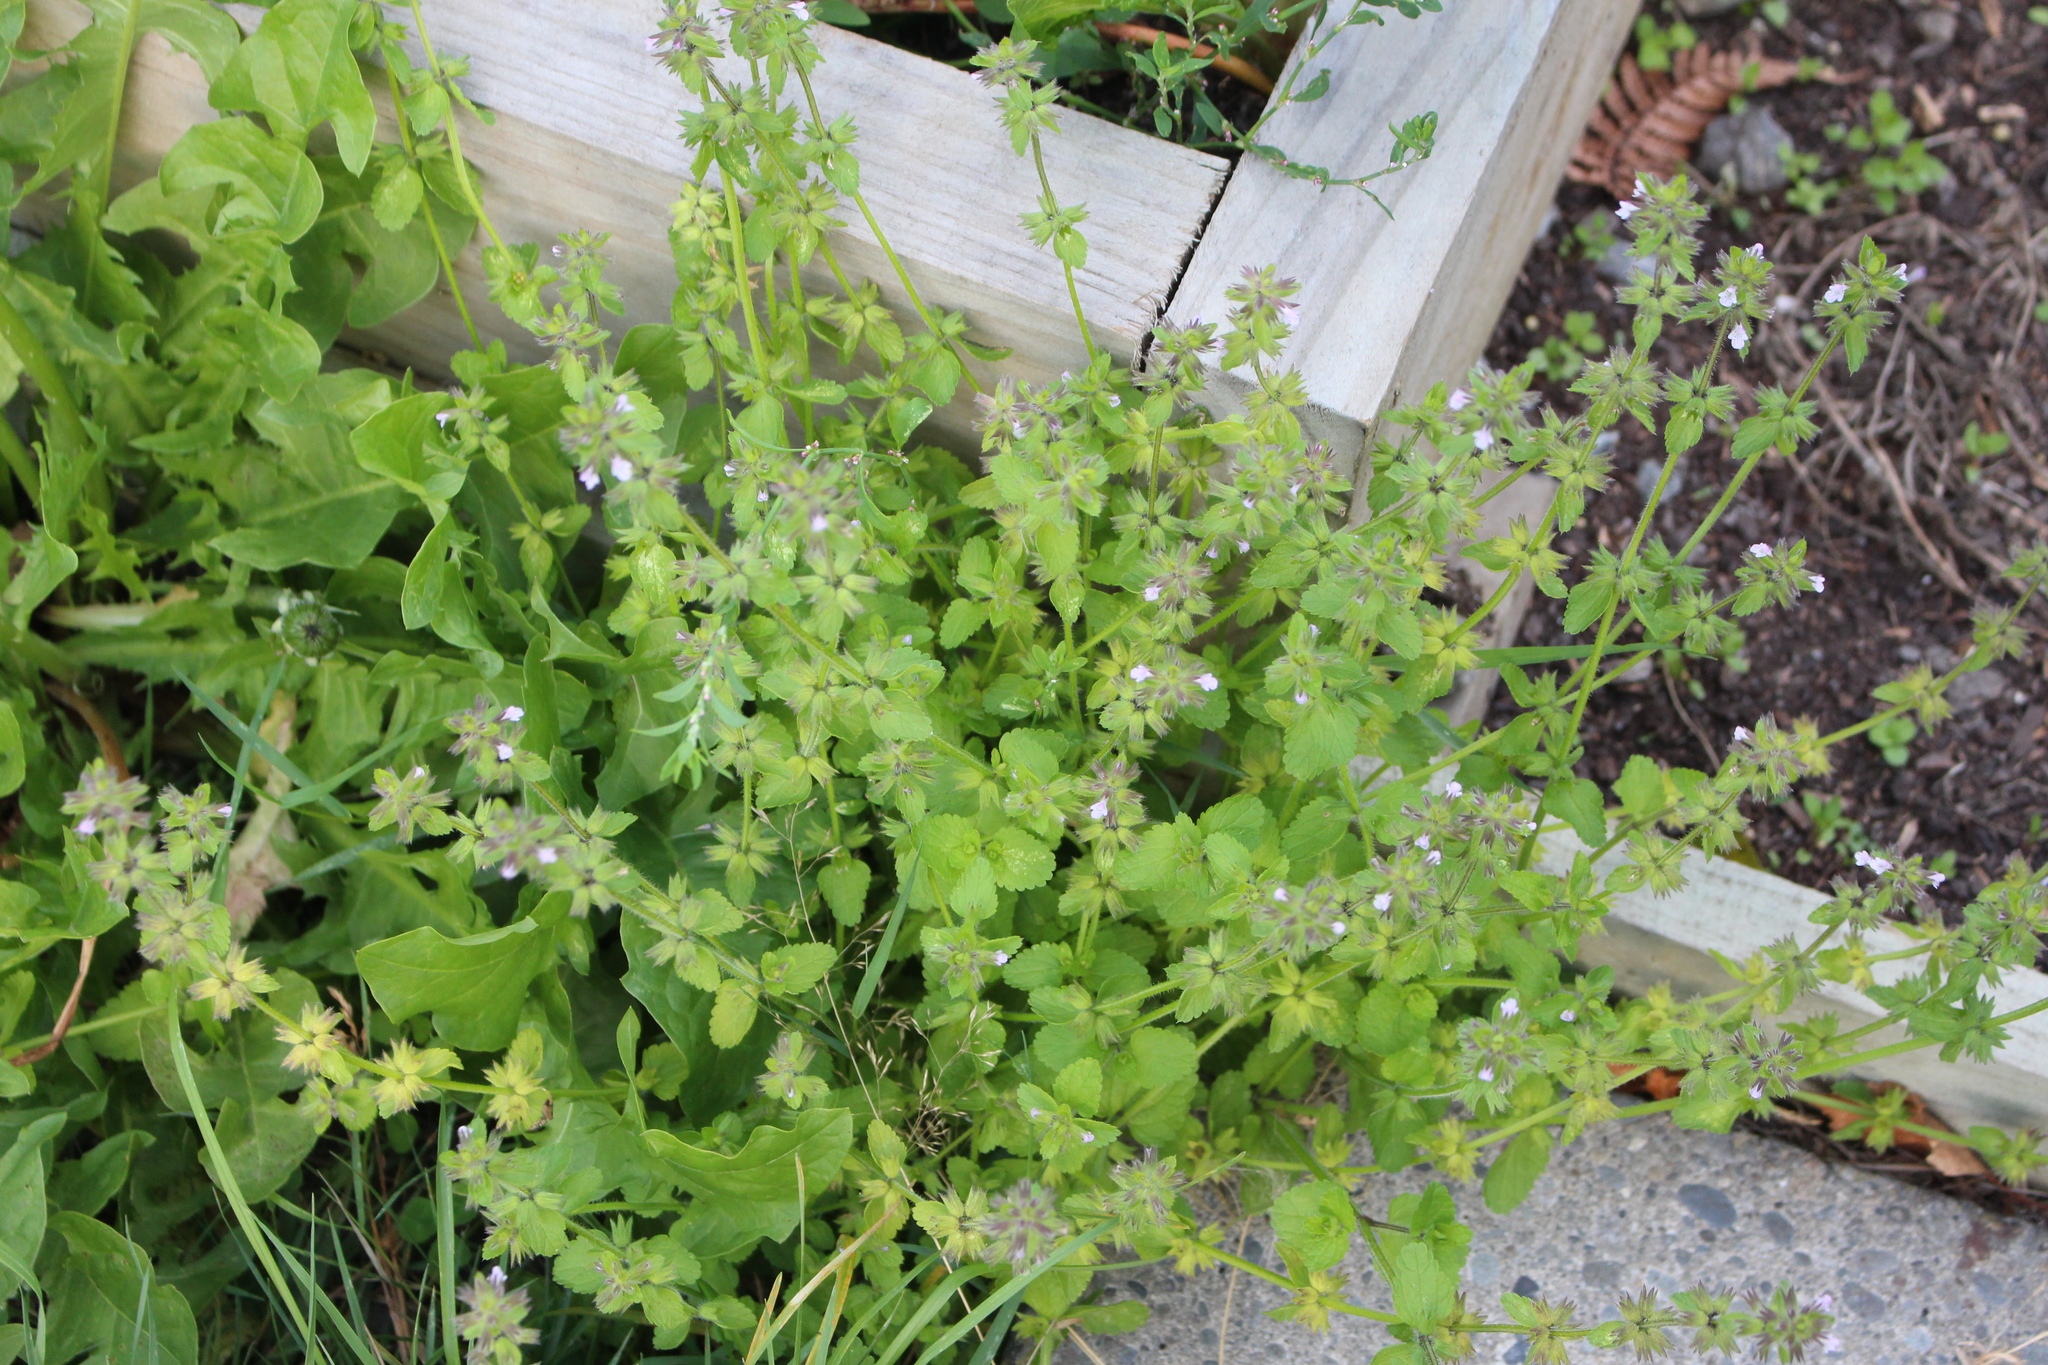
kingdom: Plantae
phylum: Tracheophyta
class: Magnoliopsida
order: Lamiales
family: Lamiaceae
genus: Stachys
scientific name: Stachys arvensis
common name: Field woundwort
